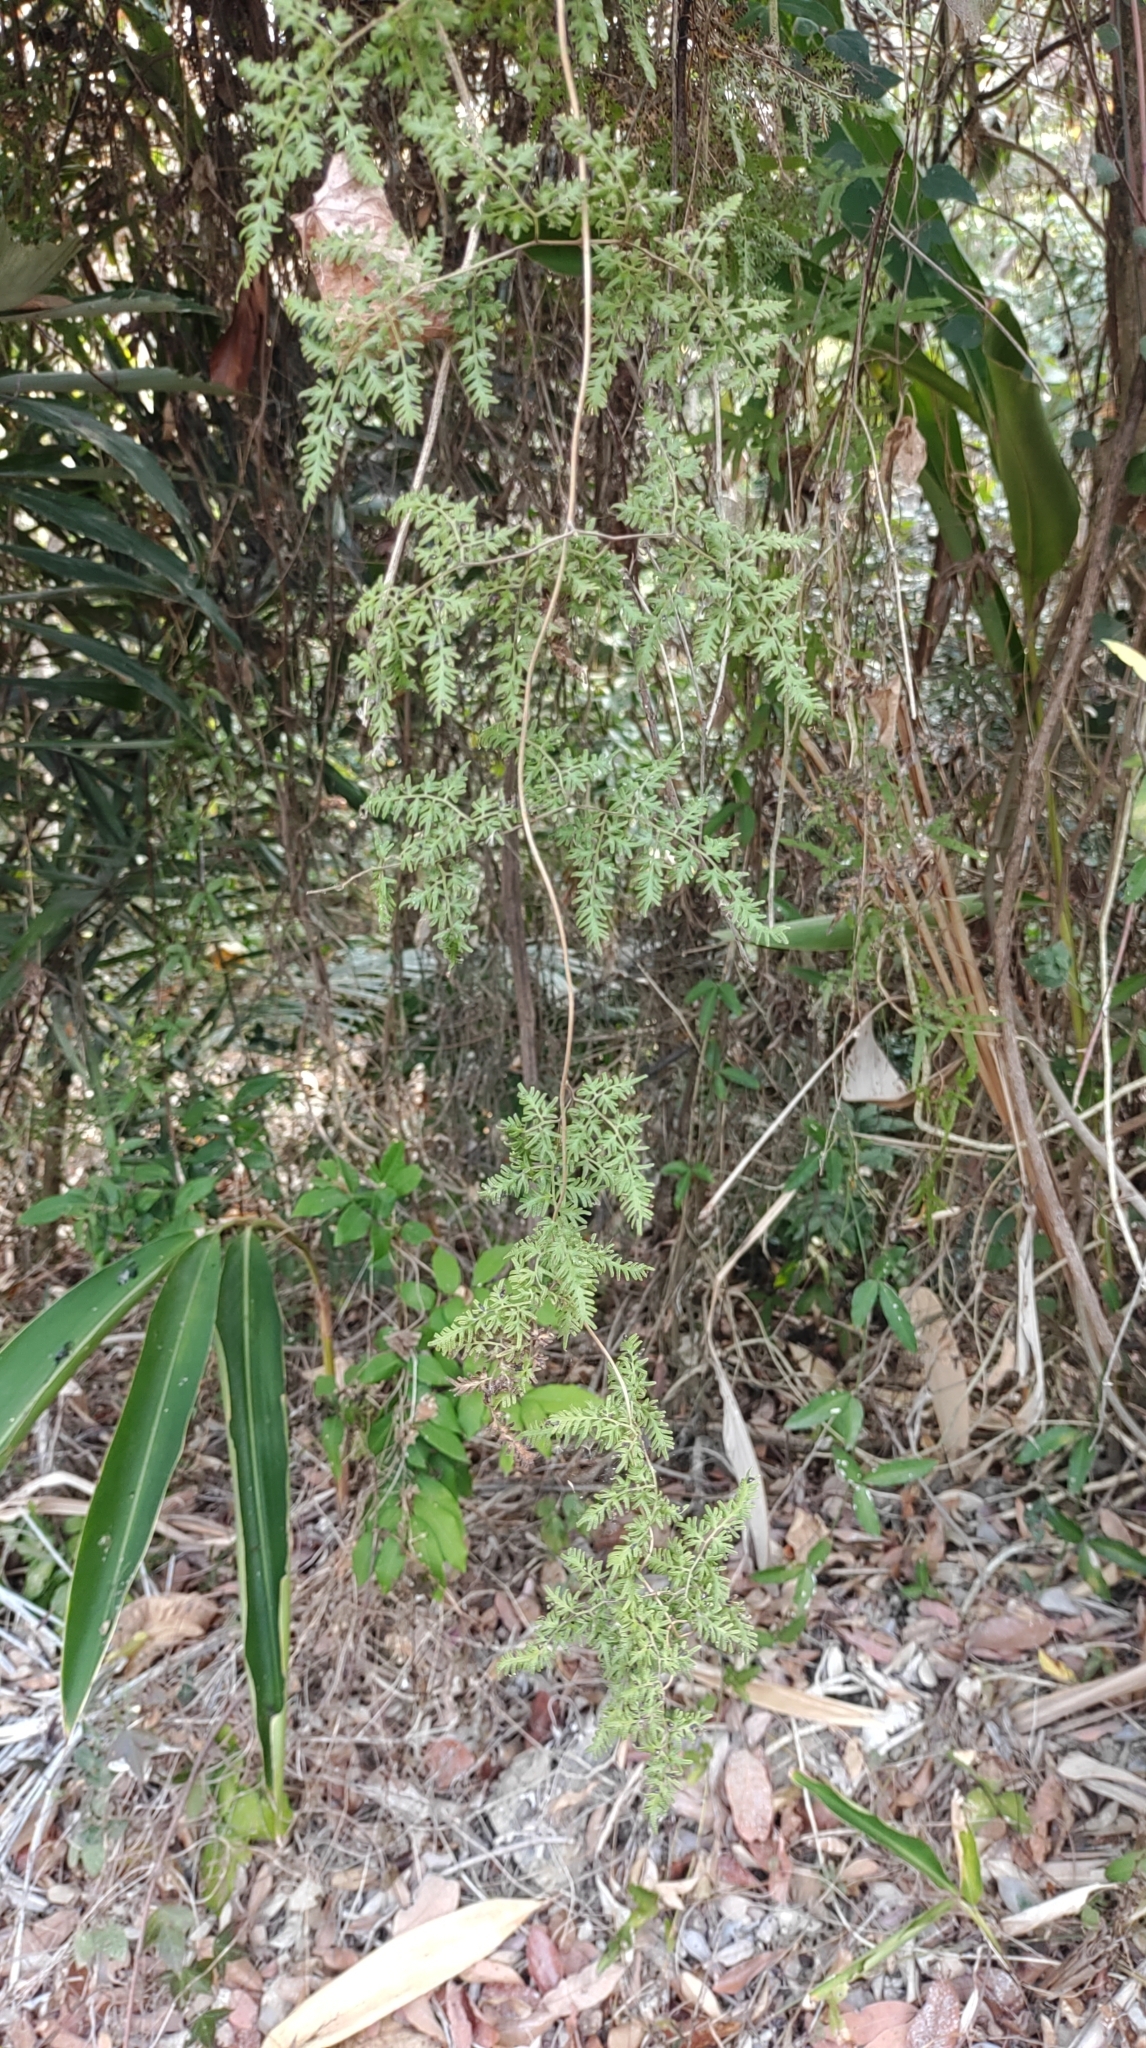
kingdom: Plantae
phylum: Tracheophyta
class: Polypodiopsida
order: Schizaeales
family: Lygodiaceae
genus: Lygodium
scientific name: Lygodium japonicum
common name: Japanese climbing fern
